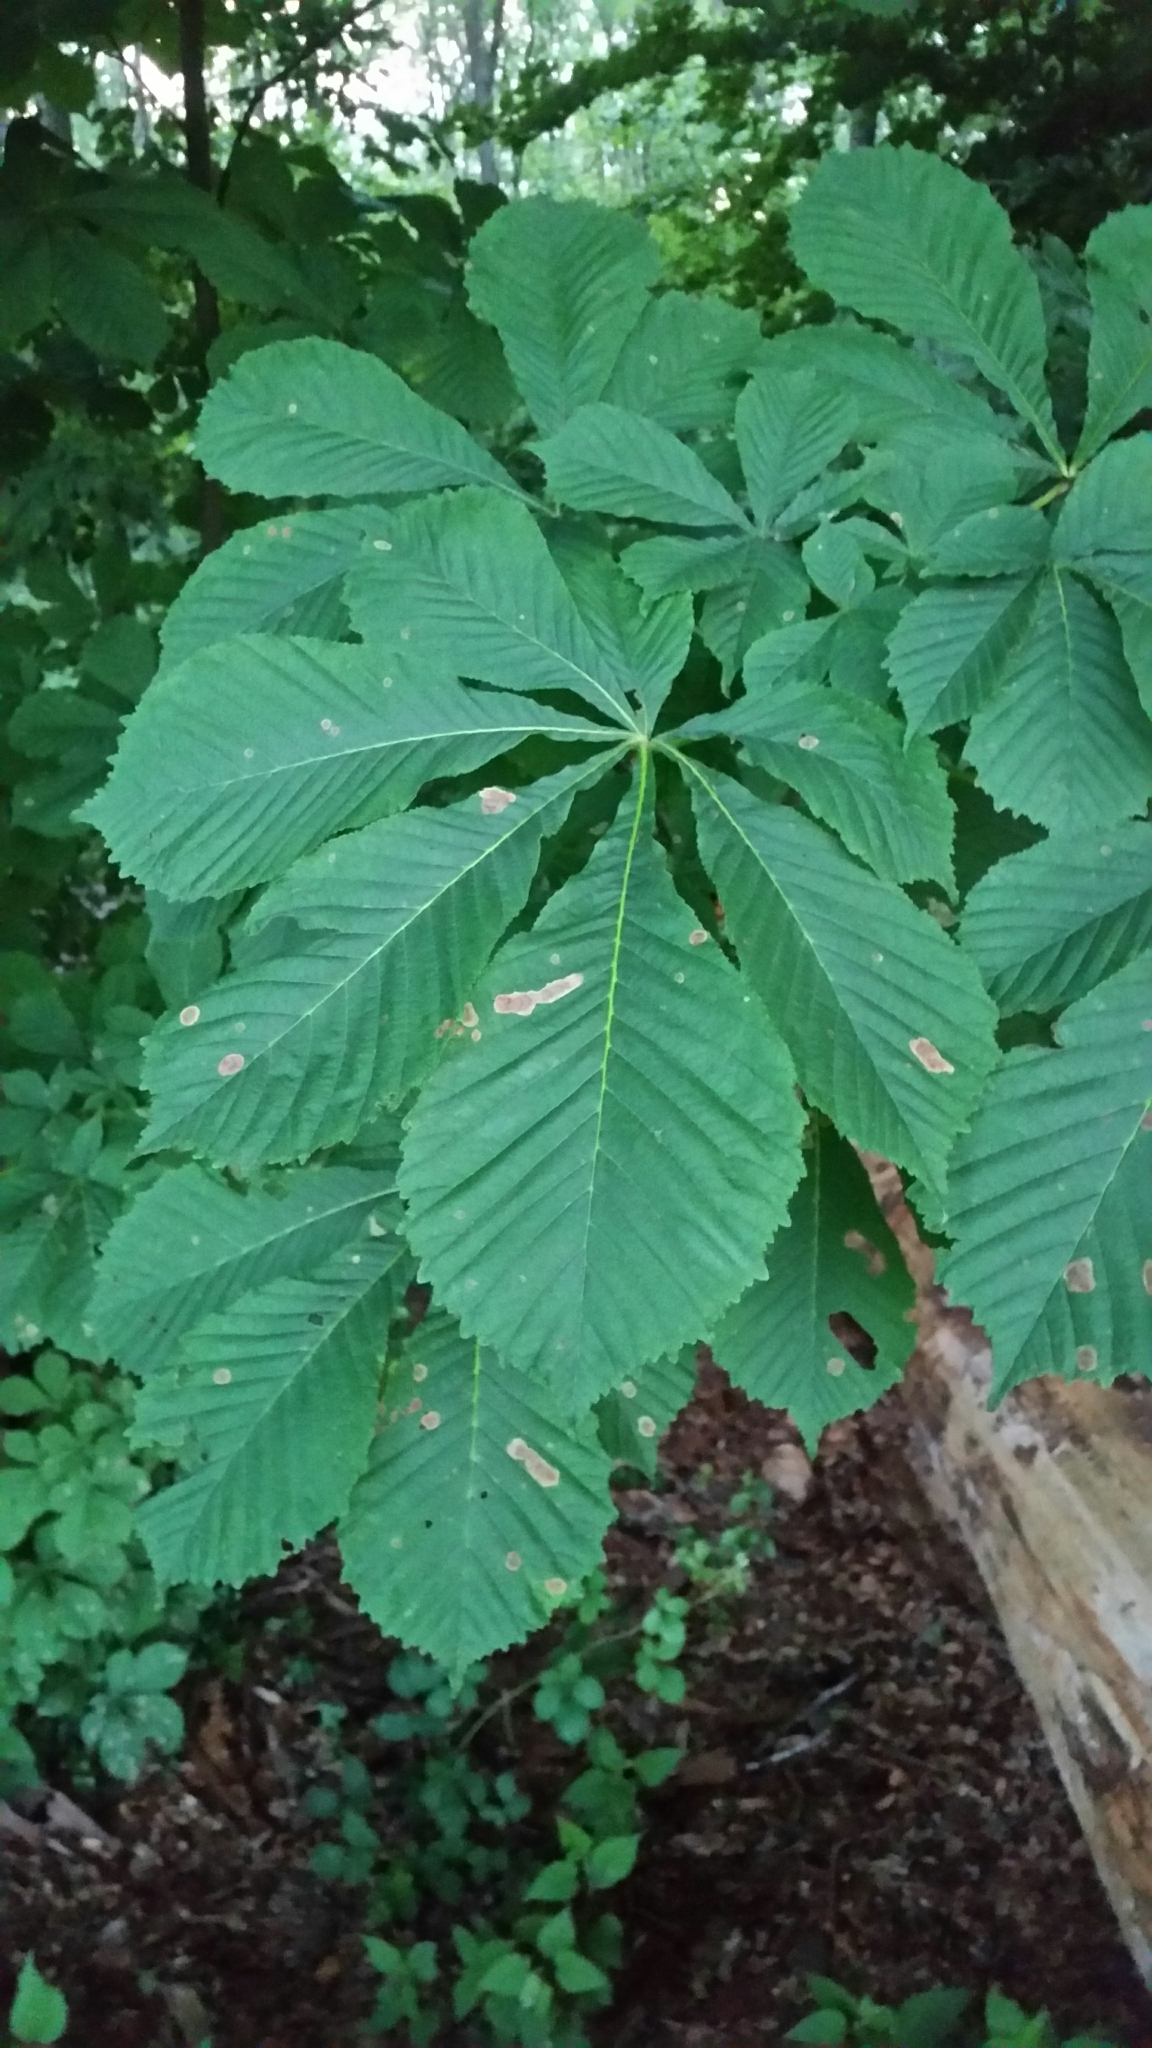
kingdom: Plantae
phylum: Tracheophyta
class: Magnoliopsida
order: Sapindales
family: Sapindaceae
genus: Aesculus
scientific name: Aesculus hippocastanum
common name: Horse-chestnut
